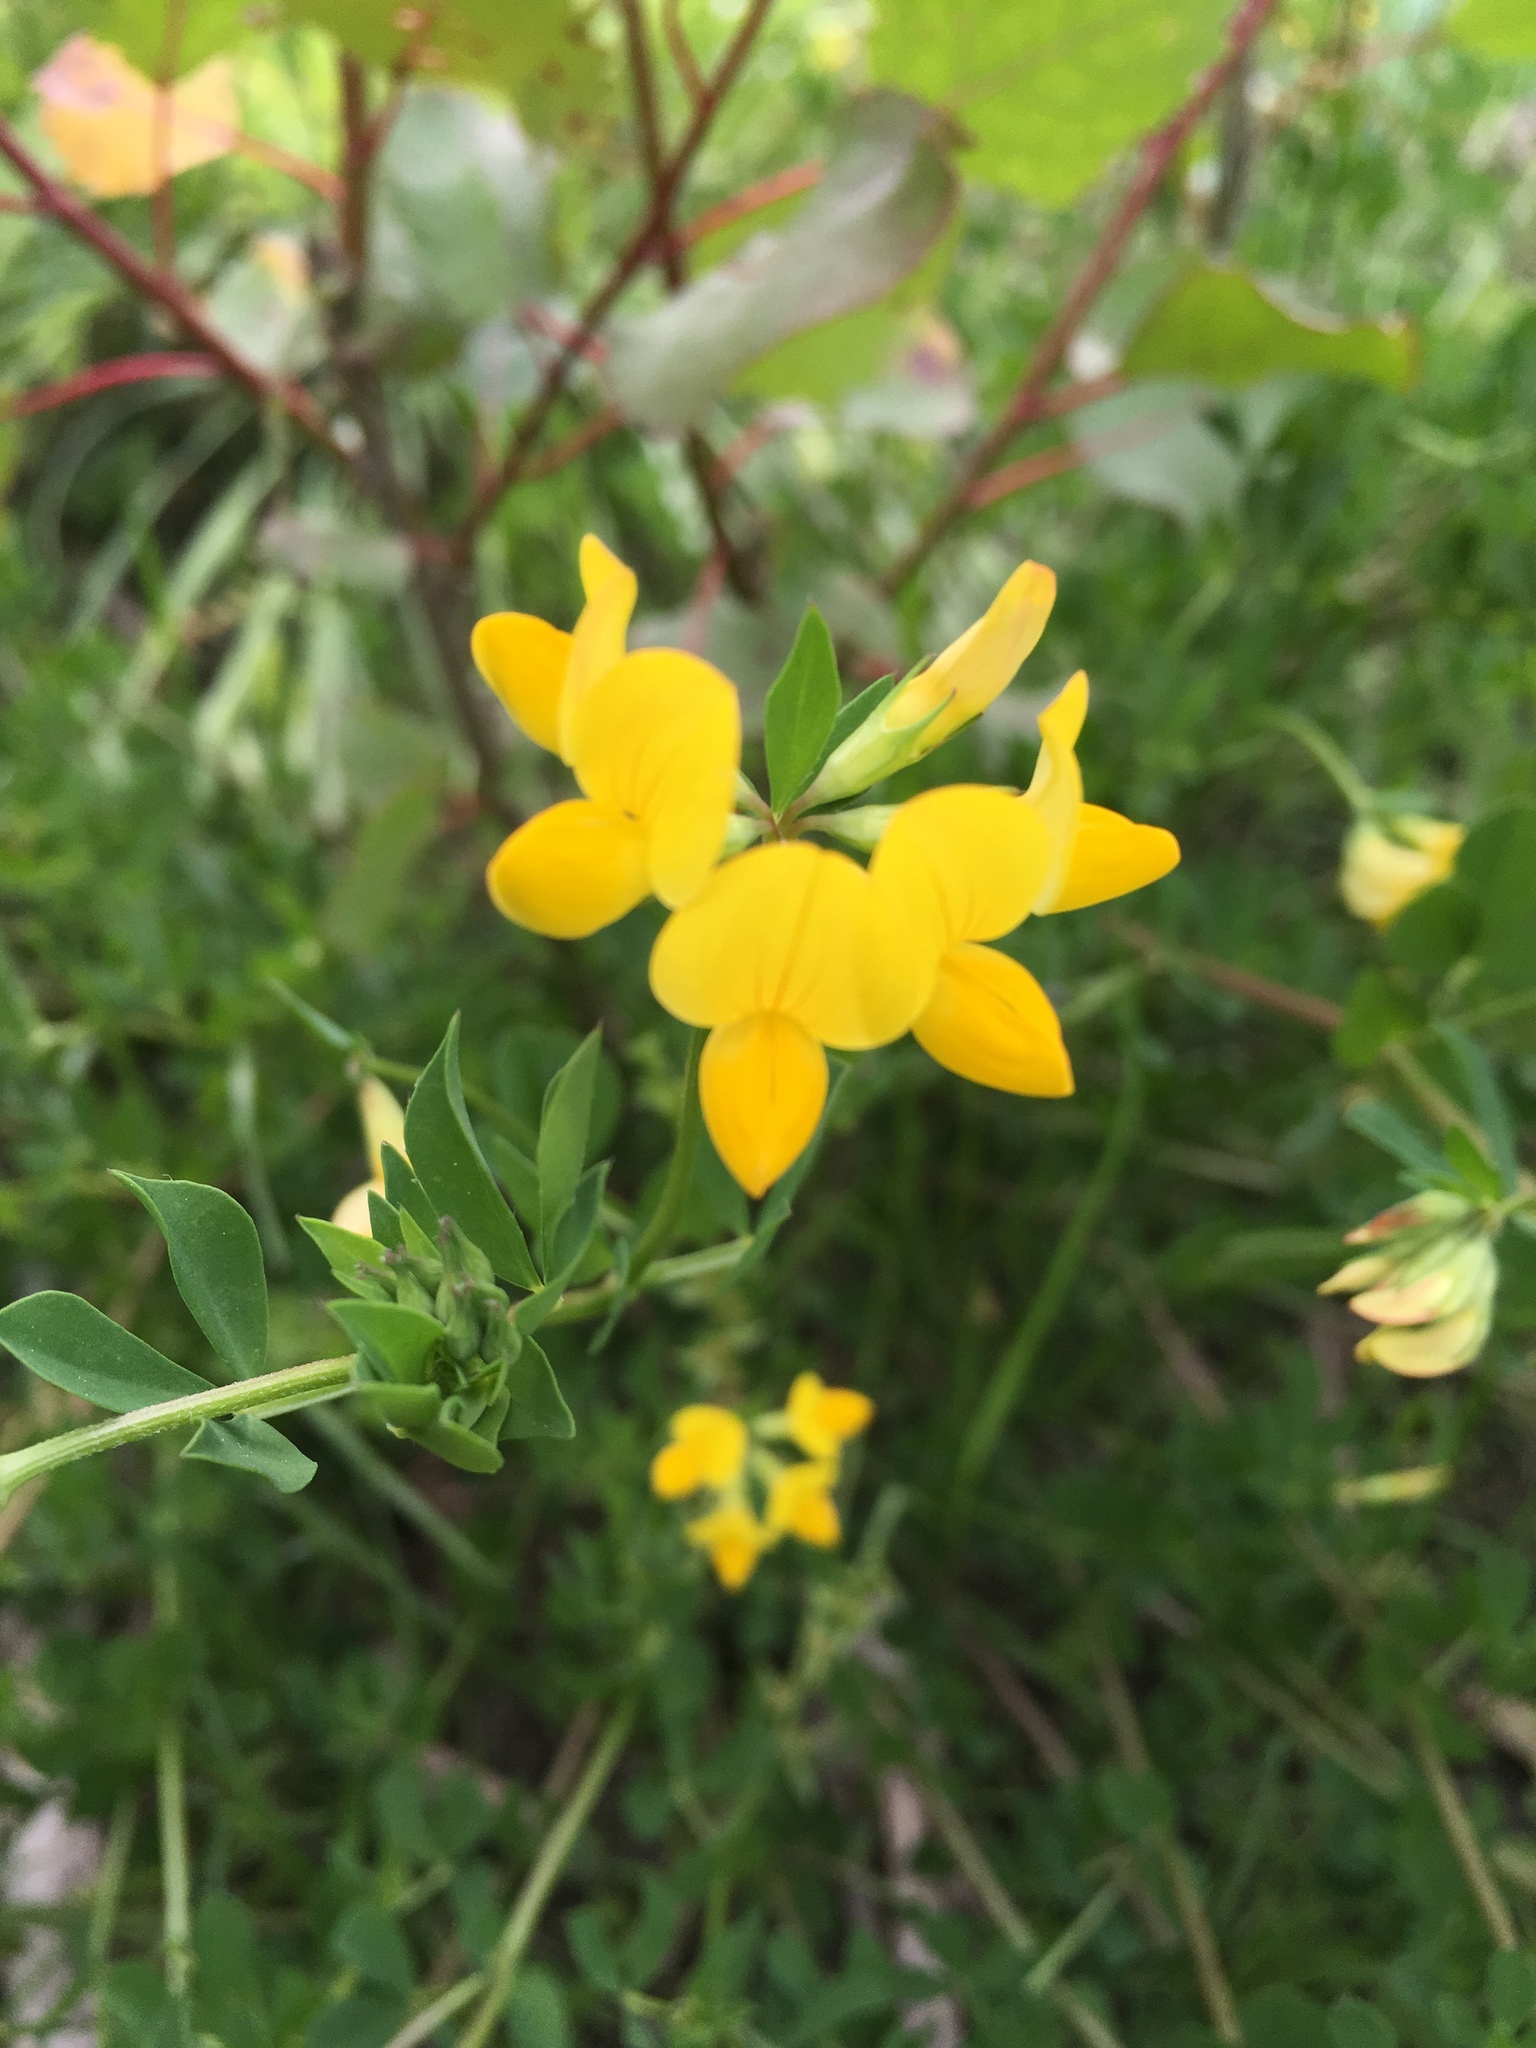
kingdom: Plantae
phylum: Tracheophyta
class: Magnoliopsida
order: Fabales
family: Fabaceae
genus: Lotus
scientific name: Lotus corniculatus
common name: Common bird's-foot-trefoil
